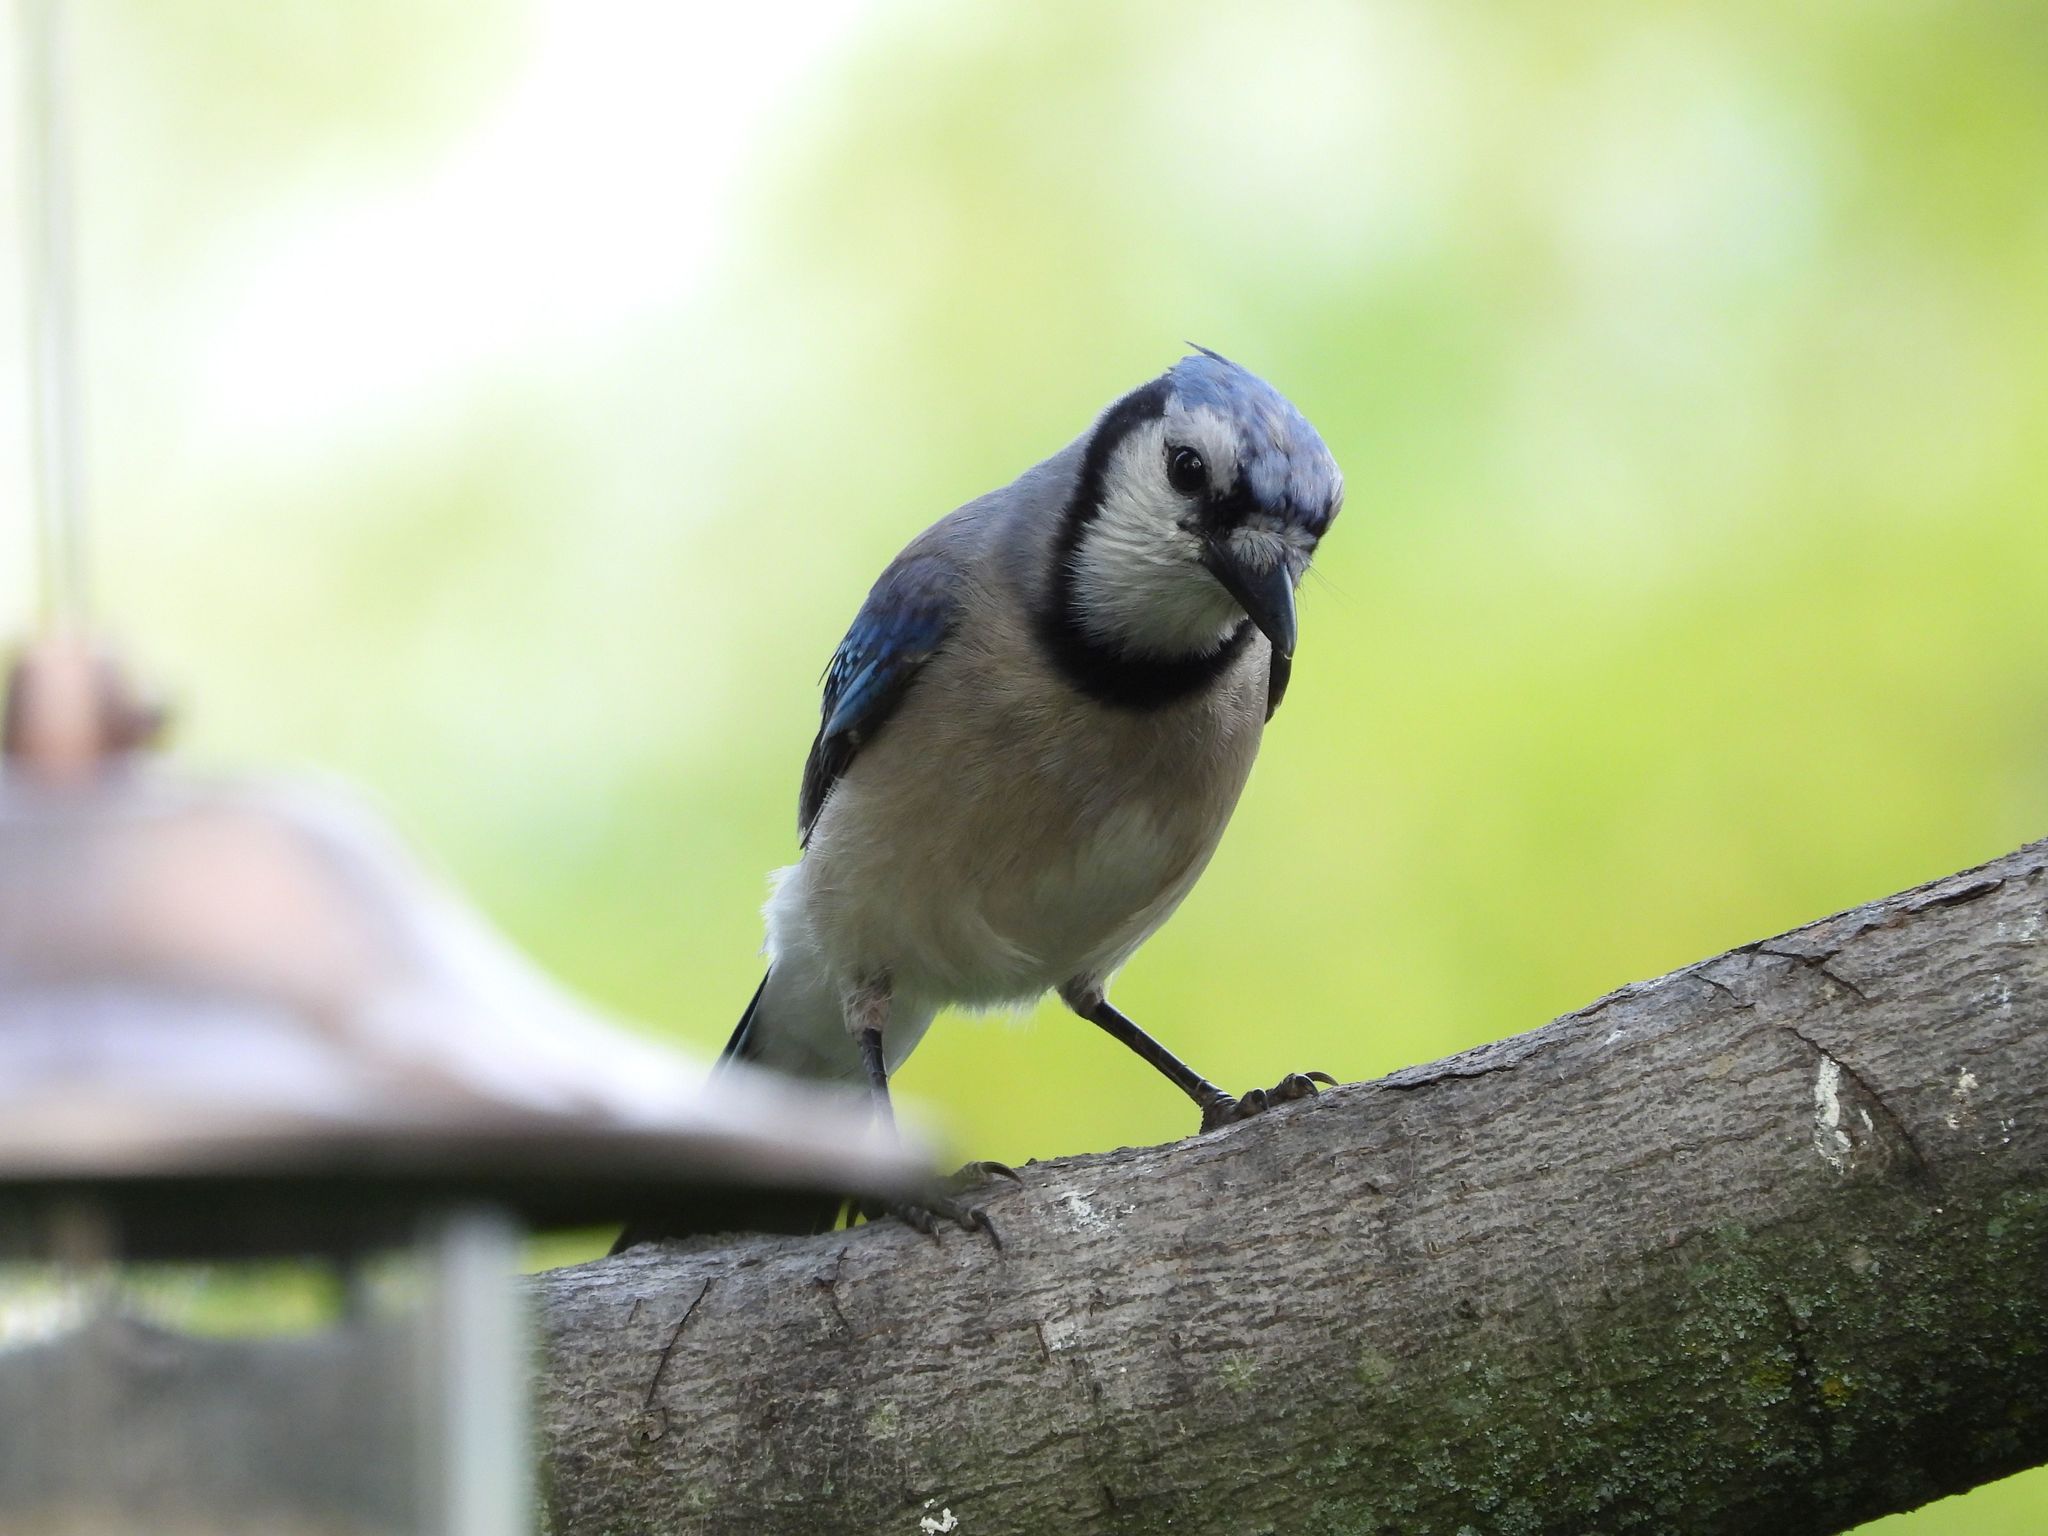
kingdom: Animalia
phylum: Chordata
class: Aves
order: Passeriformes
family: Corvidae
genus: Cyanocitta
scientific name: Cyanocitta cristata
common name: Blue jay
